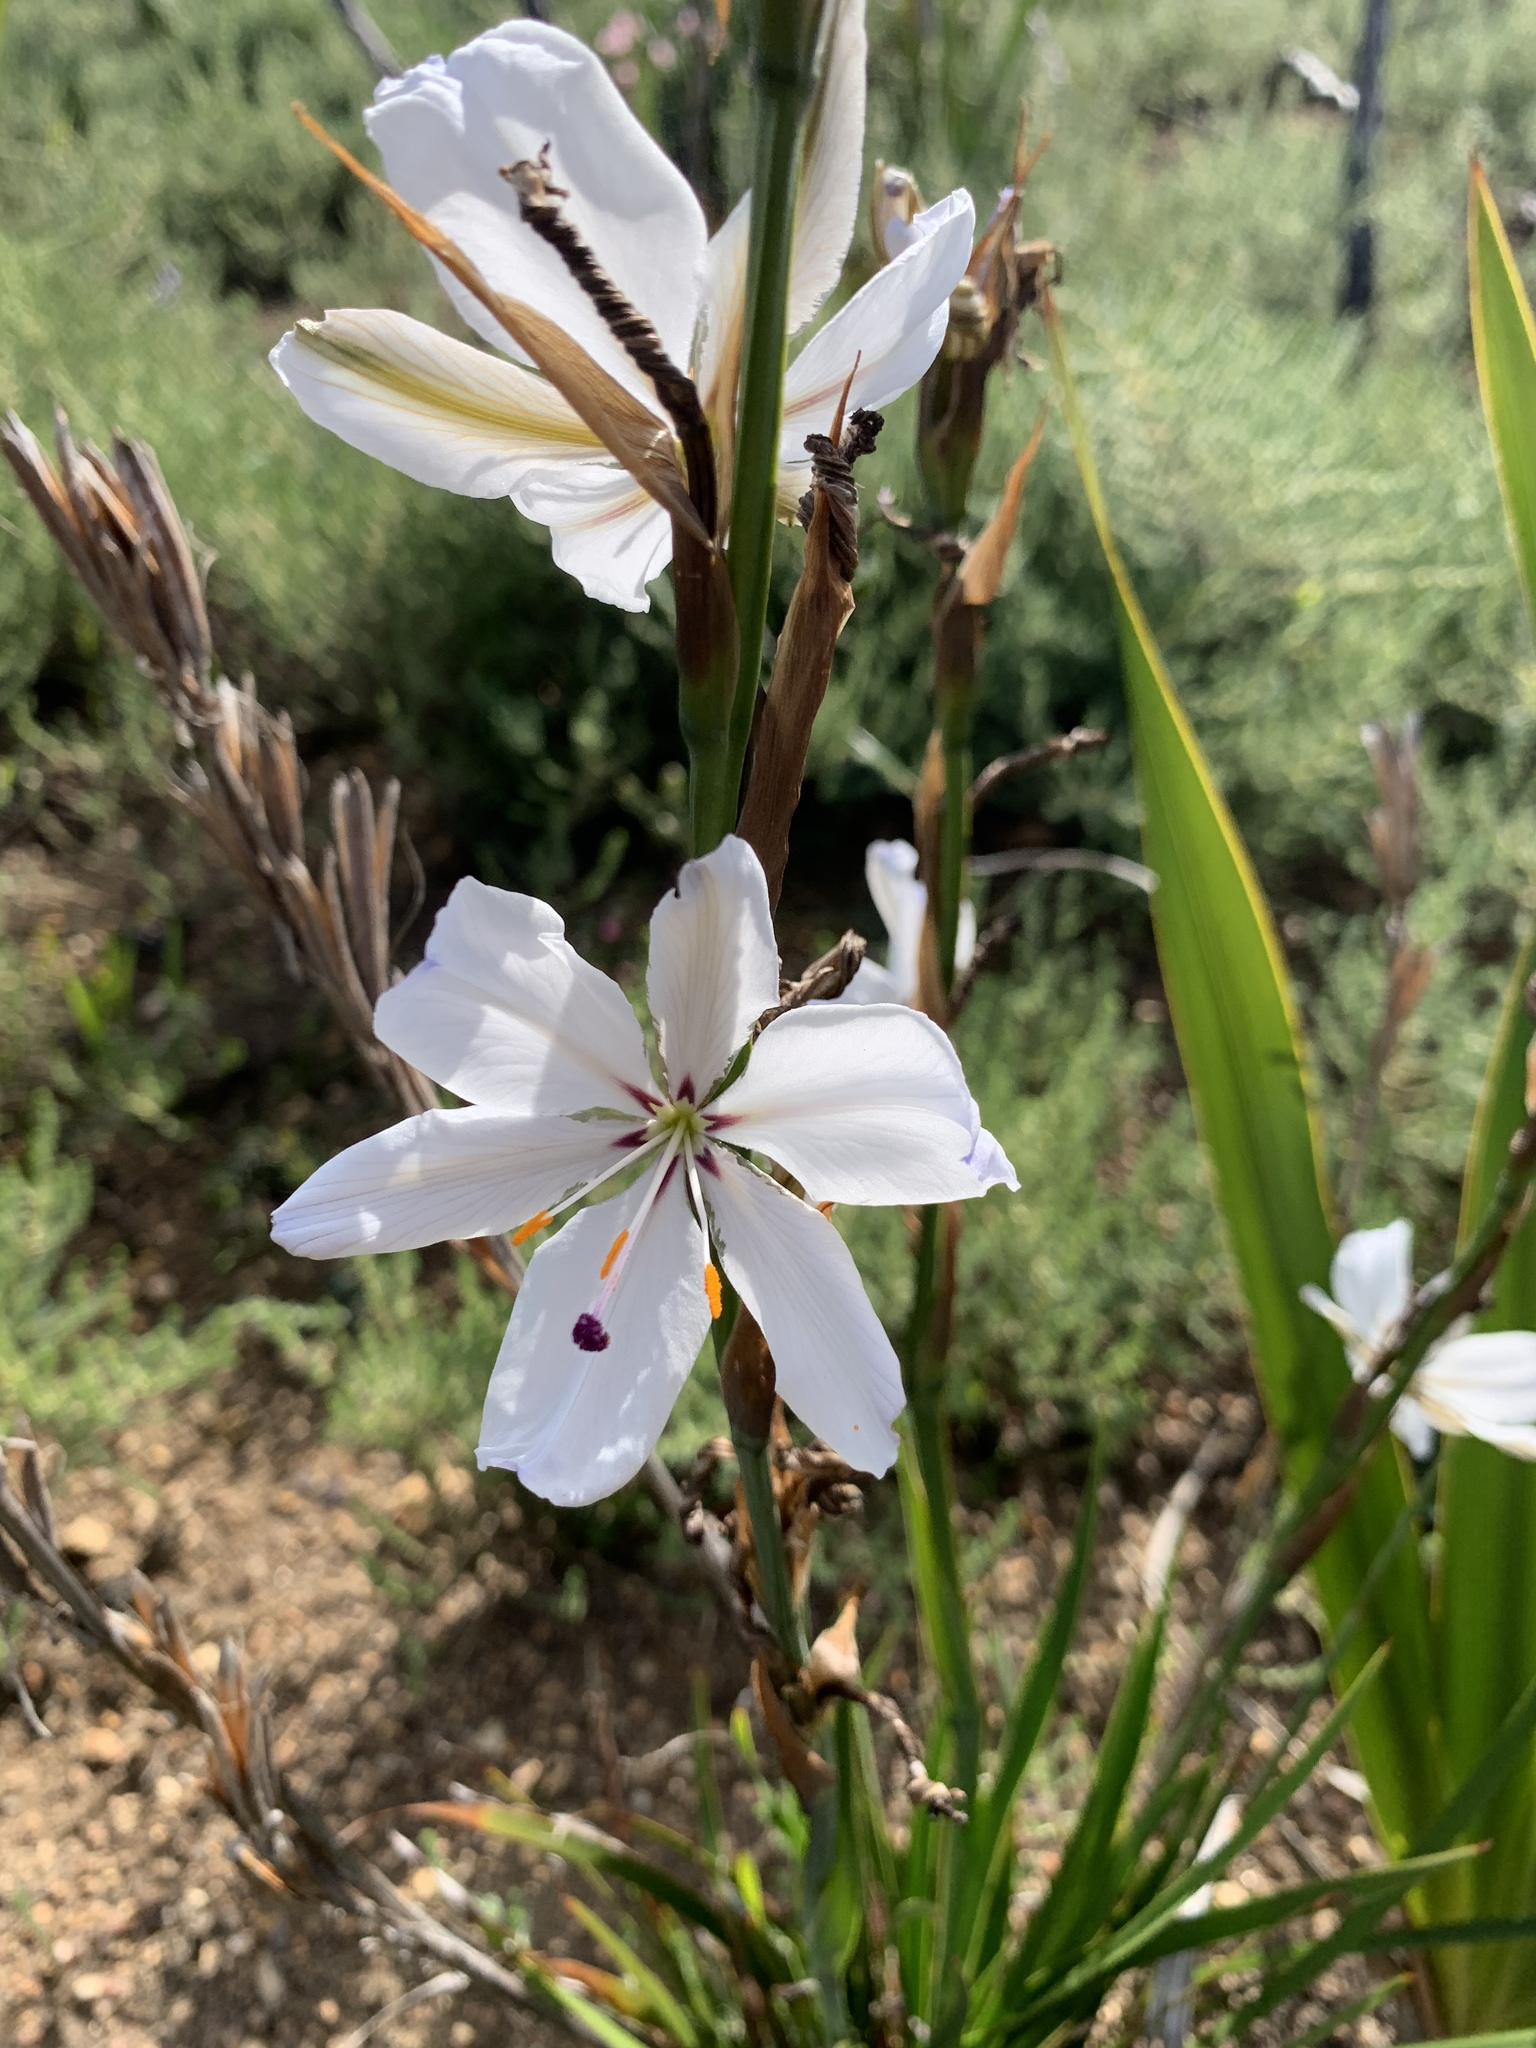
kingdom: Plantae
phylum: Tracheophyta
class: Liliopsida
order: Asparagales
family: Iridaceae
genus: Aristea
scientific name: Aristea spiralis
